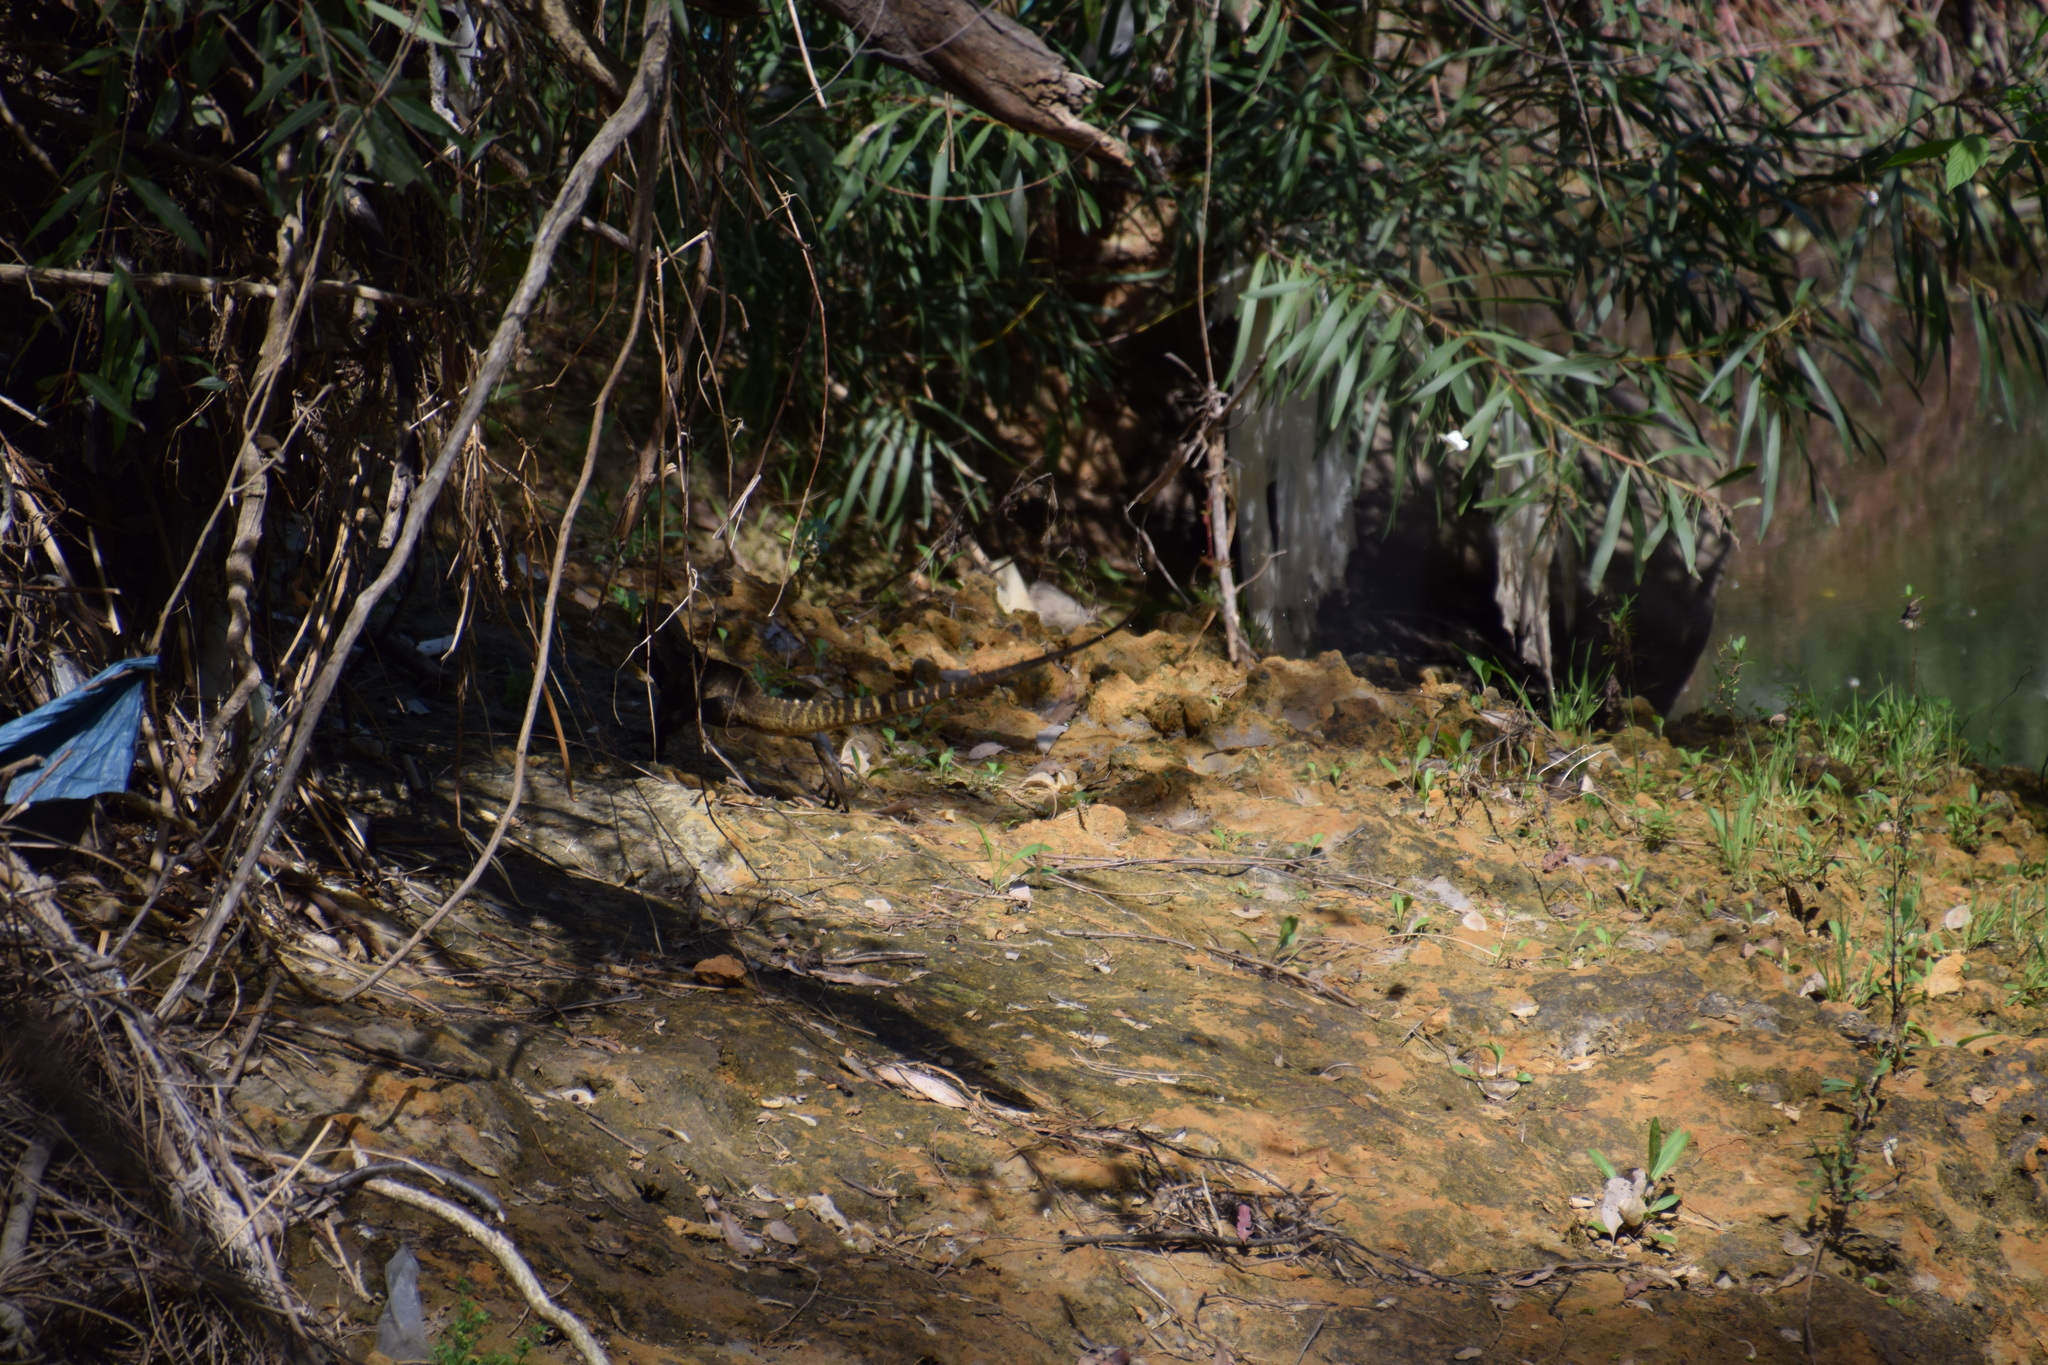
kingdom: Animalia
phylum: Chordata
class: Squamata
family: Agamidae
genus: Intellagama
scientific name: Intellagama lesueurii
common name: Eastern water dragon
